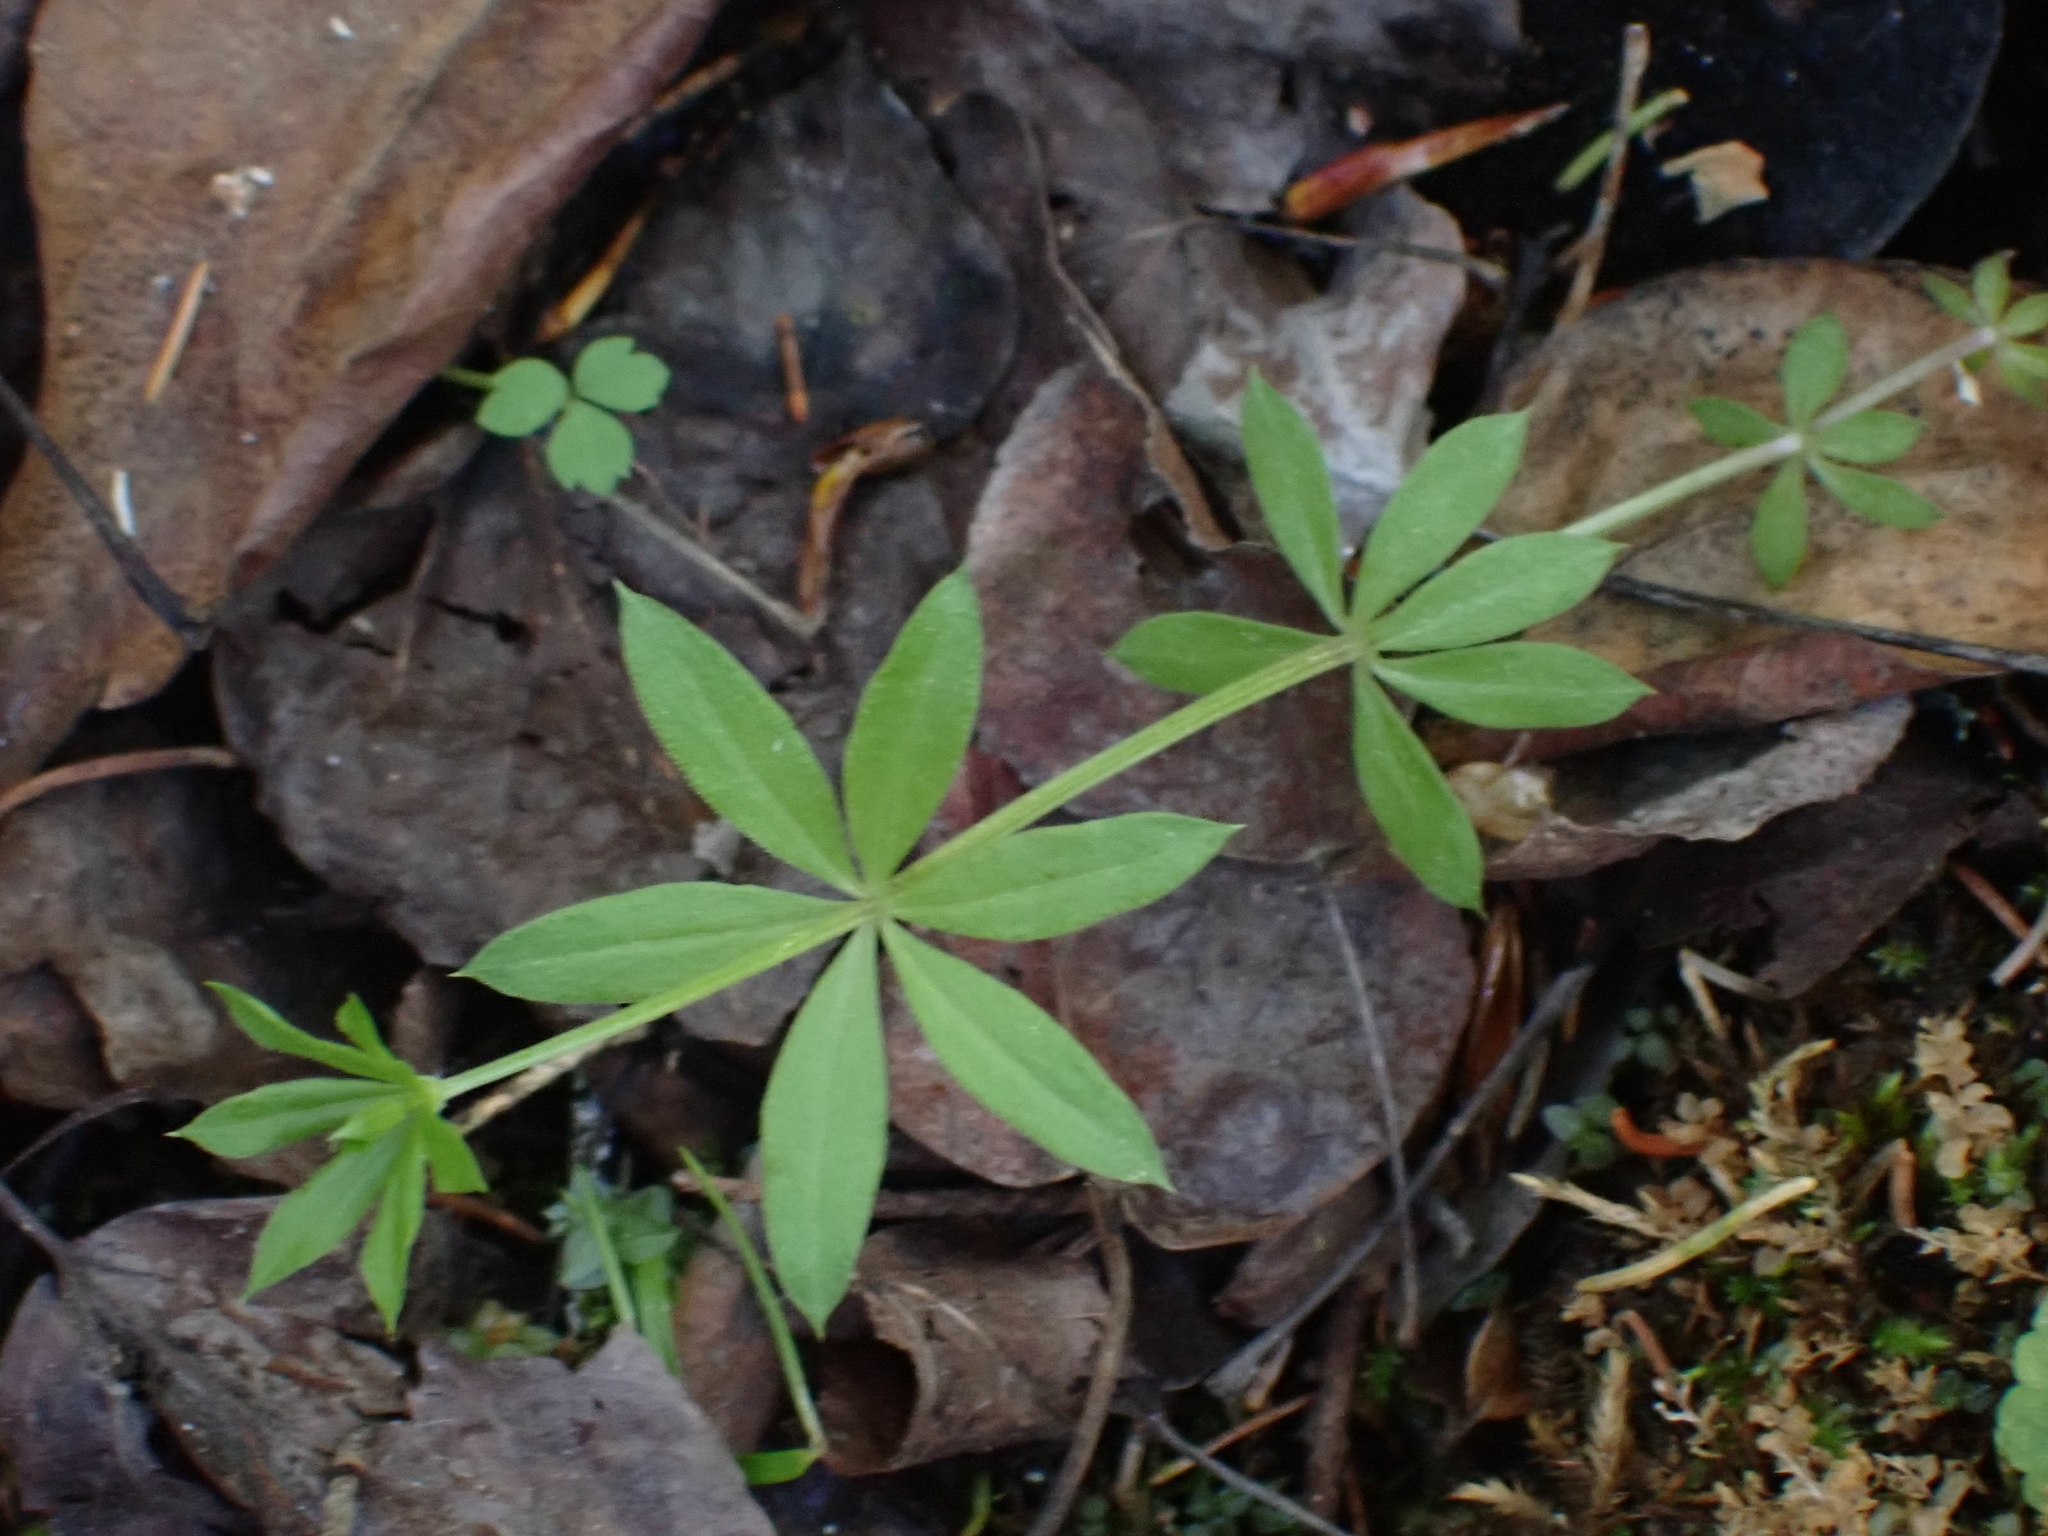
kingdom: Plantae
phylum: Tracheophyta
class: Magnoliopsida
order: Gentianales
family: Rubiaceae
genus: Galium
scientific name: Galium triflorum
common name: Fragrant bedstraw
